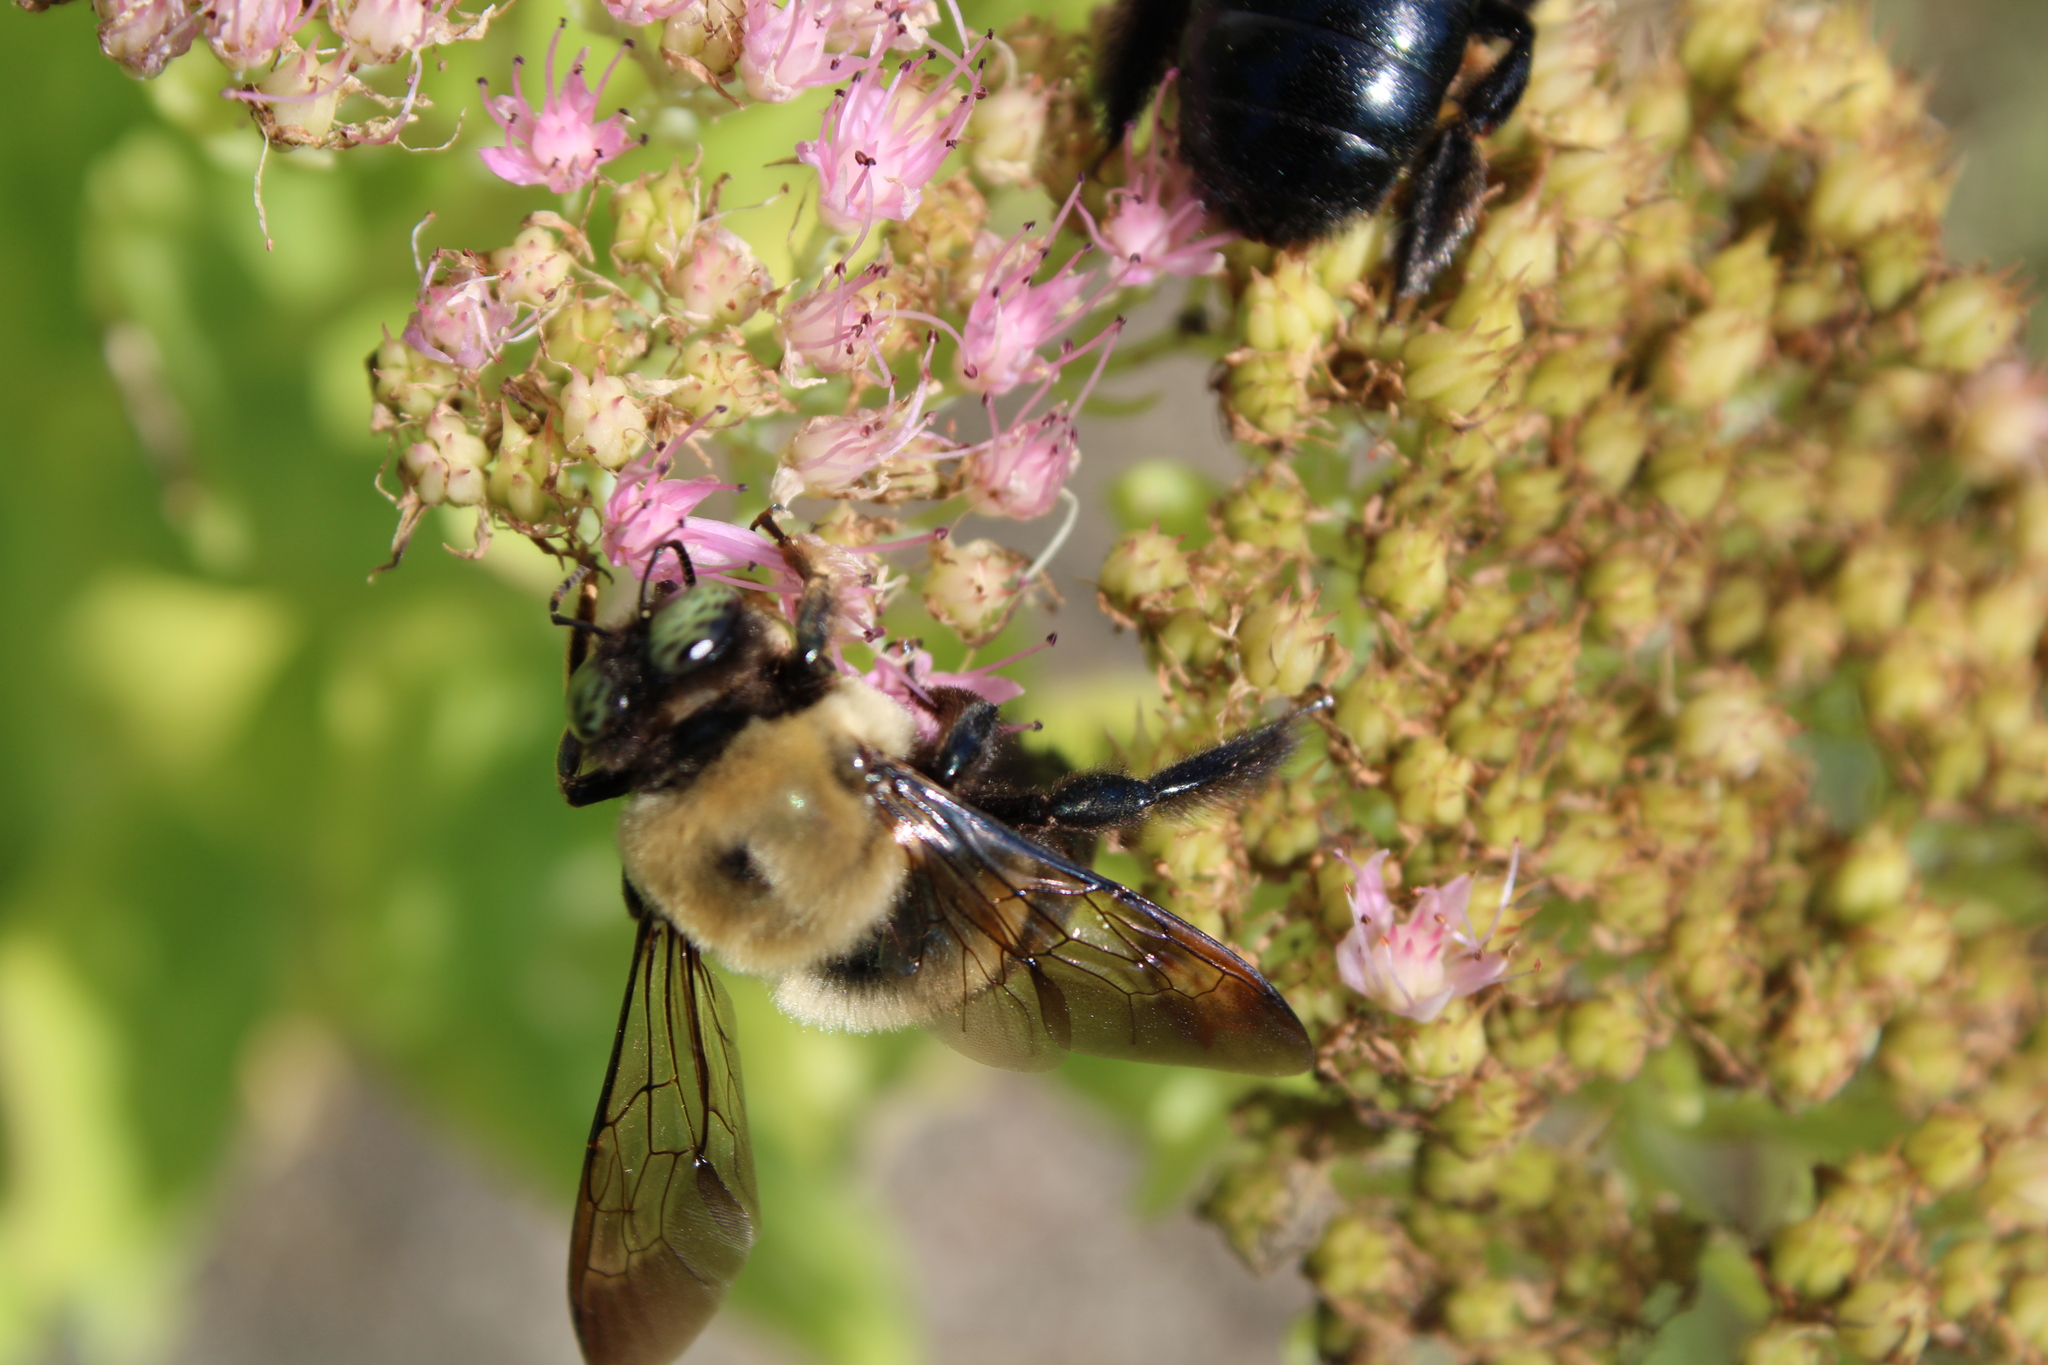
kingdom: Animalia
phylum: Arthropoda
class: Insecta
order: Hymenoptera
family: Apidae
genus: Xylocopa
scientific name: Xylocopa virginica
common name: Carpenter bee
